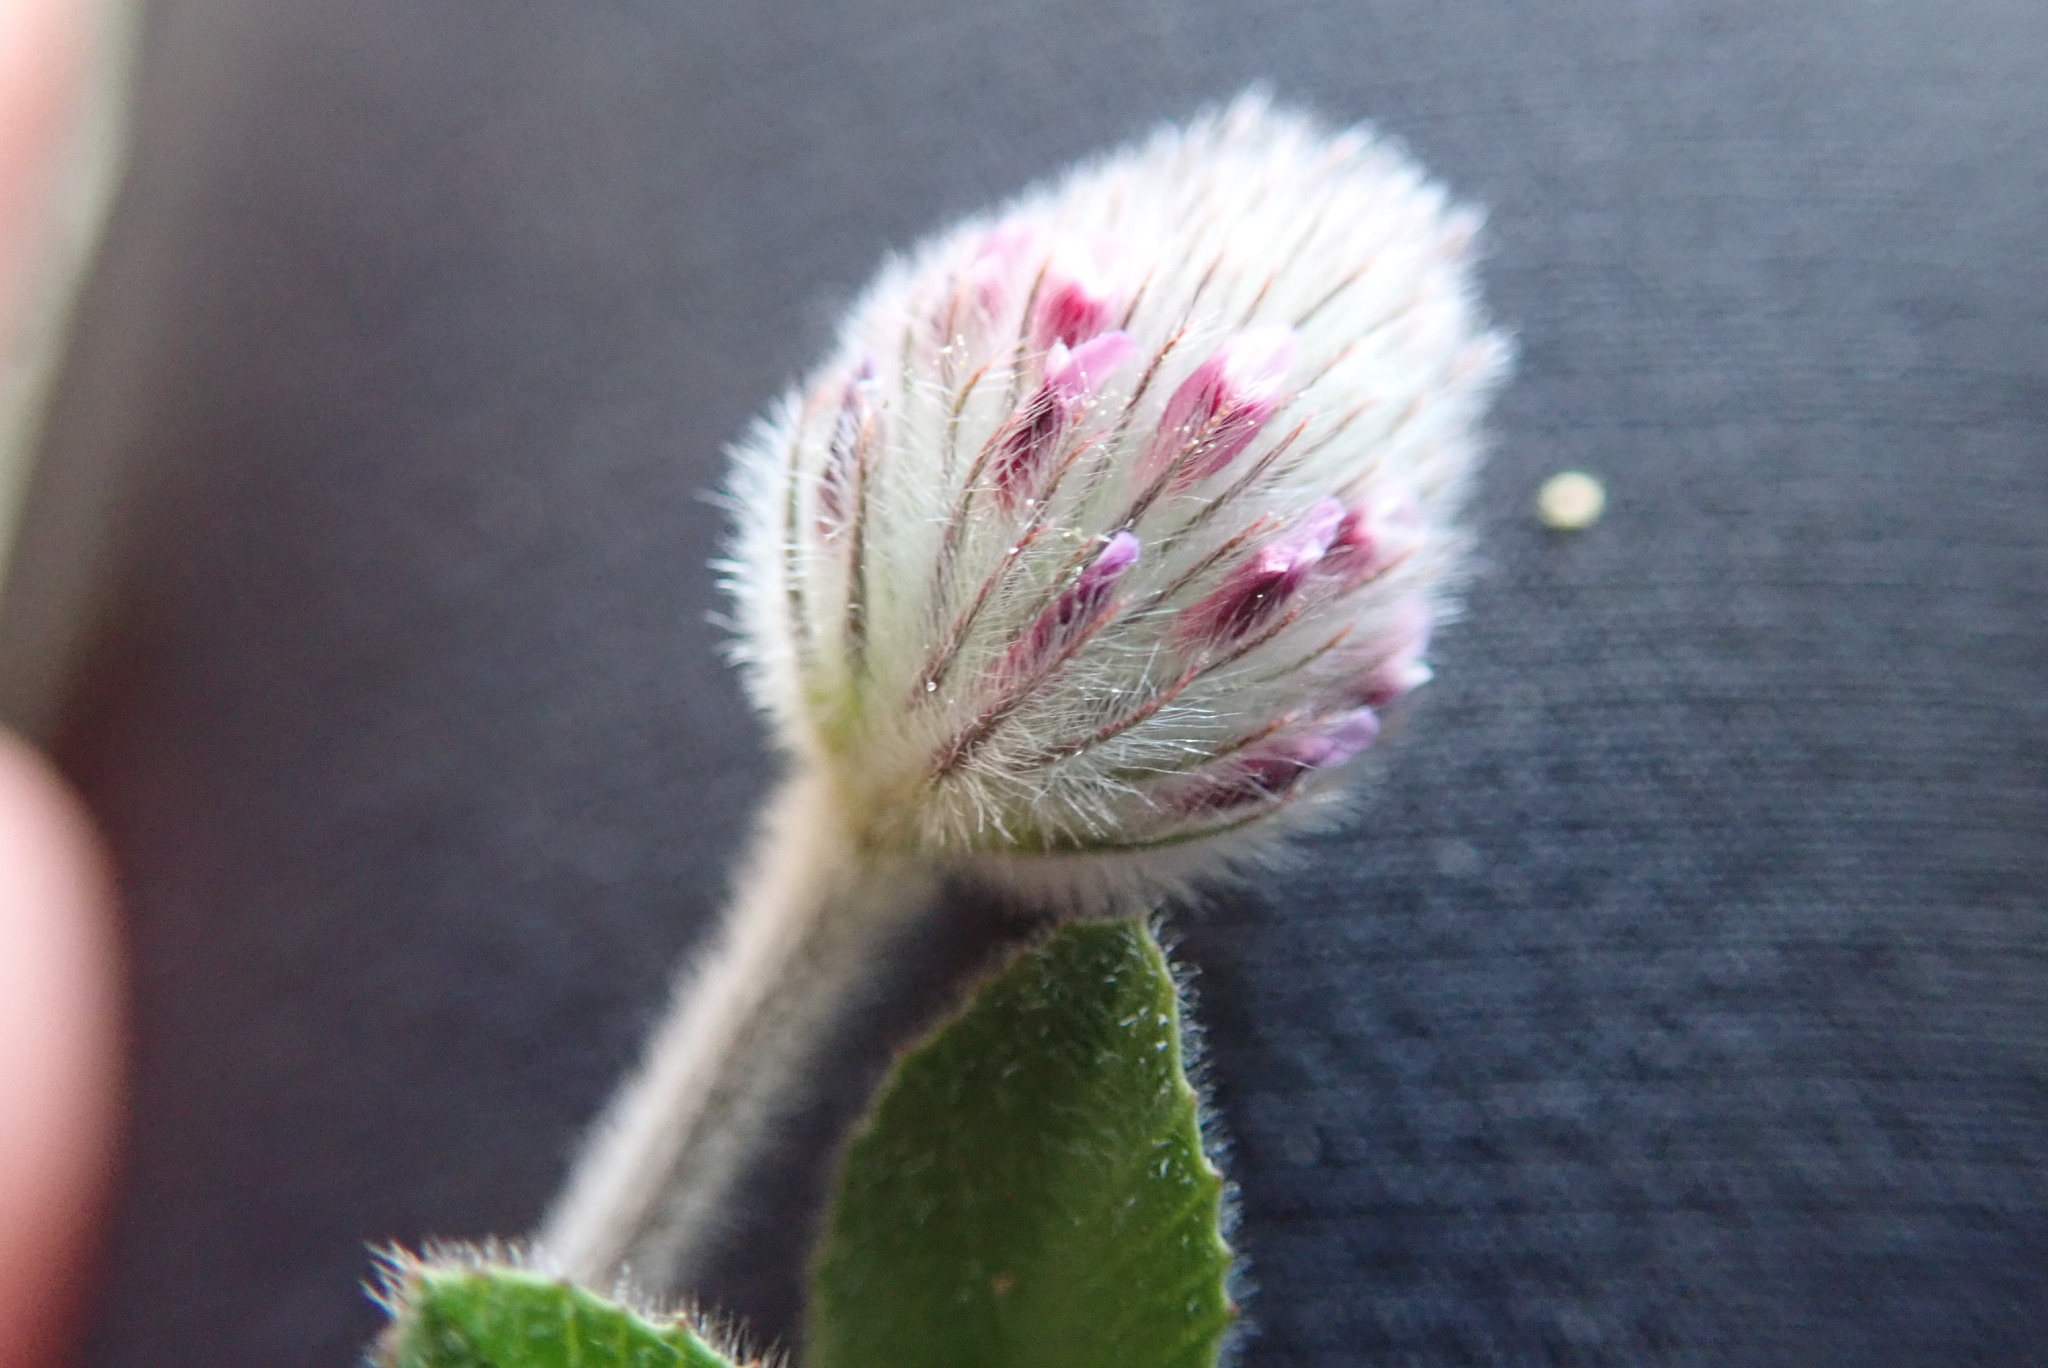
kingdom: Plantae
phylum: Tracheophyta
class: Magnoliopsida
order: Fabales
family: Fabaceae
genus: Trifolium
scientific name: Trifolium albopurpureum
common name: Rancheria clover
